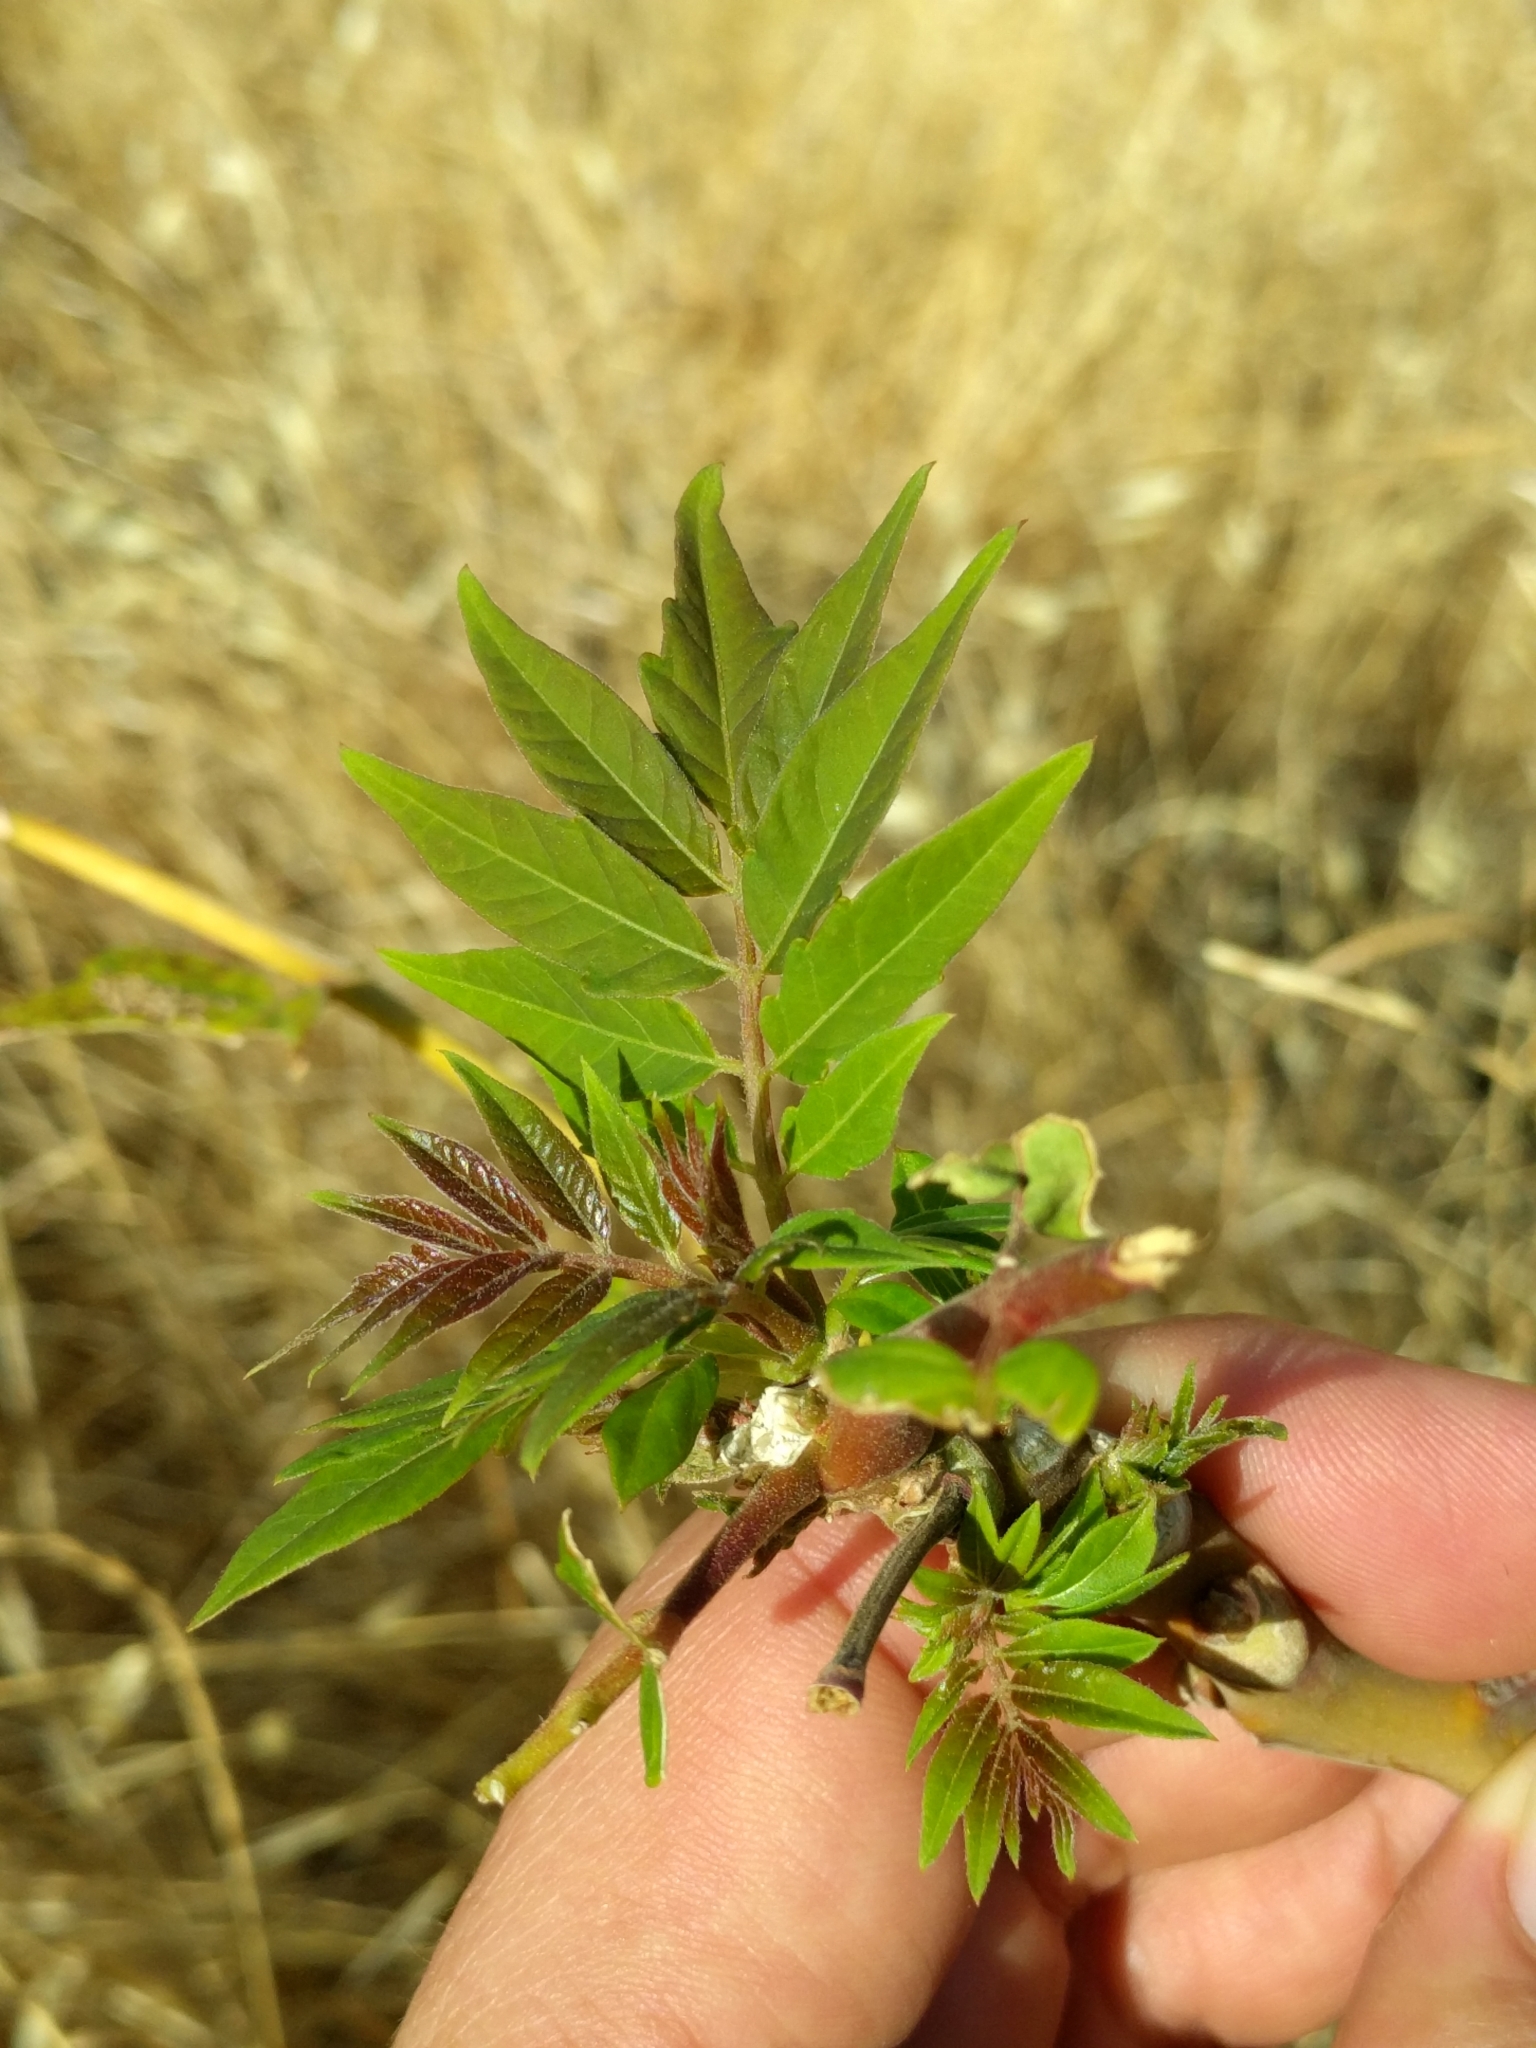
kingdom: Plantae
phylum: Tracheophyta
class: Magnoliopsida
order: Sapindales
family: Simaroubaceae
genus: Ailanthus
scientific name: Ailanthus altissima
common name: Tree-of-heaven
